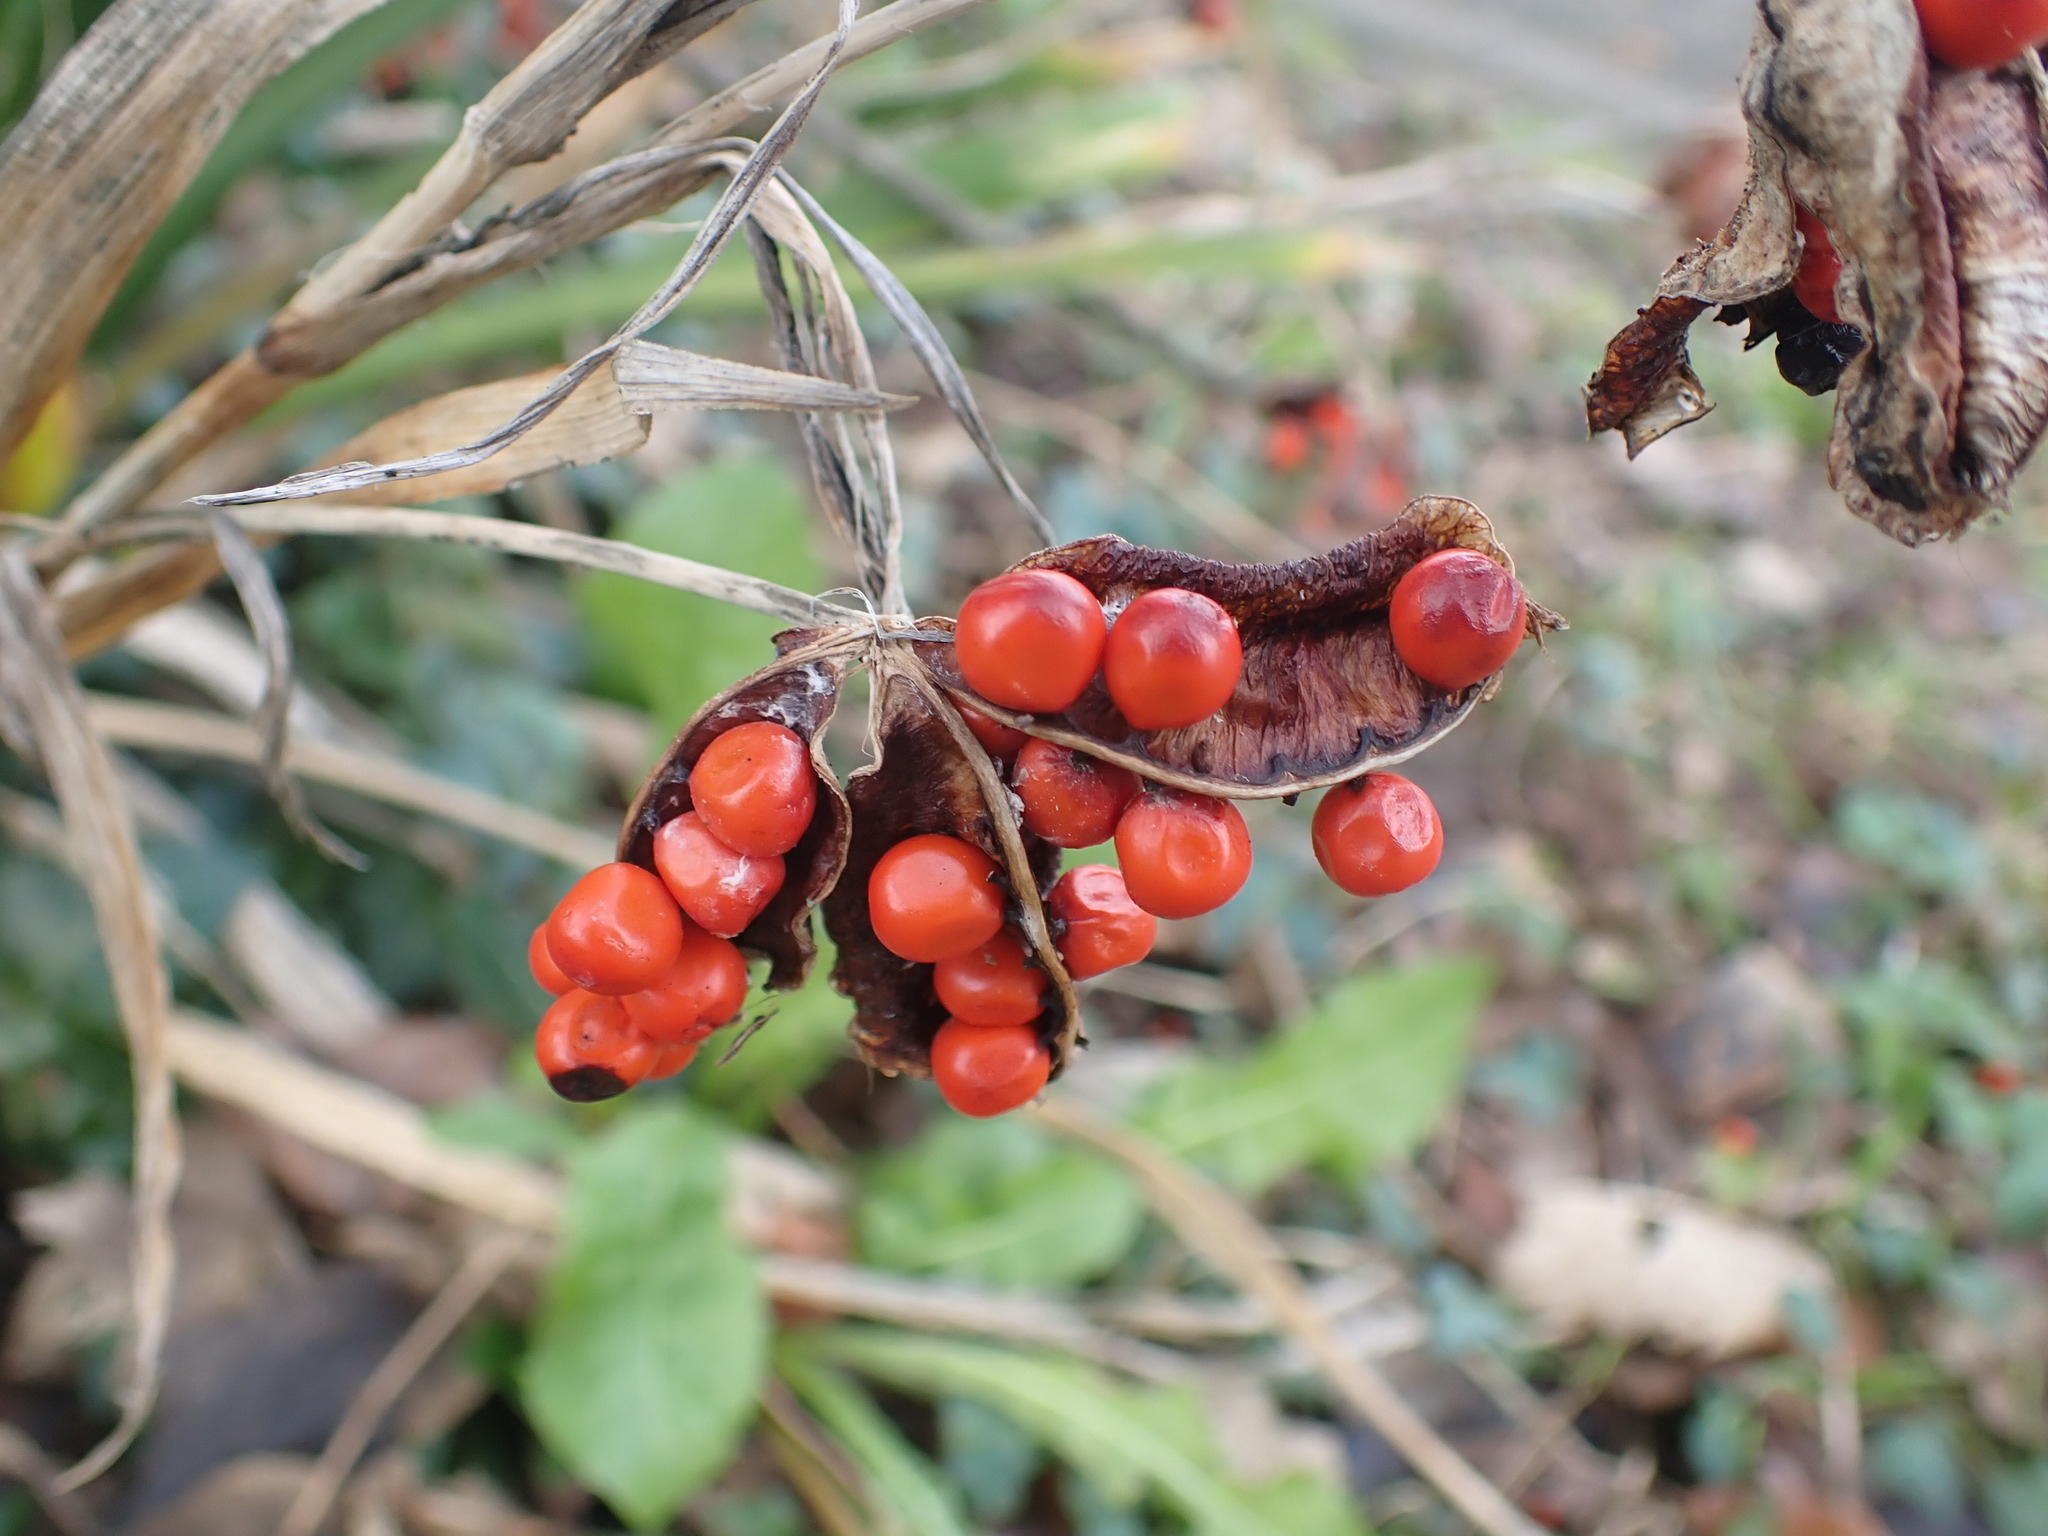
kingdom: Plantae
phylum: Tracheophyta
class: Liliopsida
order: Asparagales
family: Iridaceae
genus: Iris
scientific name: Iris foetidissima
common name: Stinking iris
